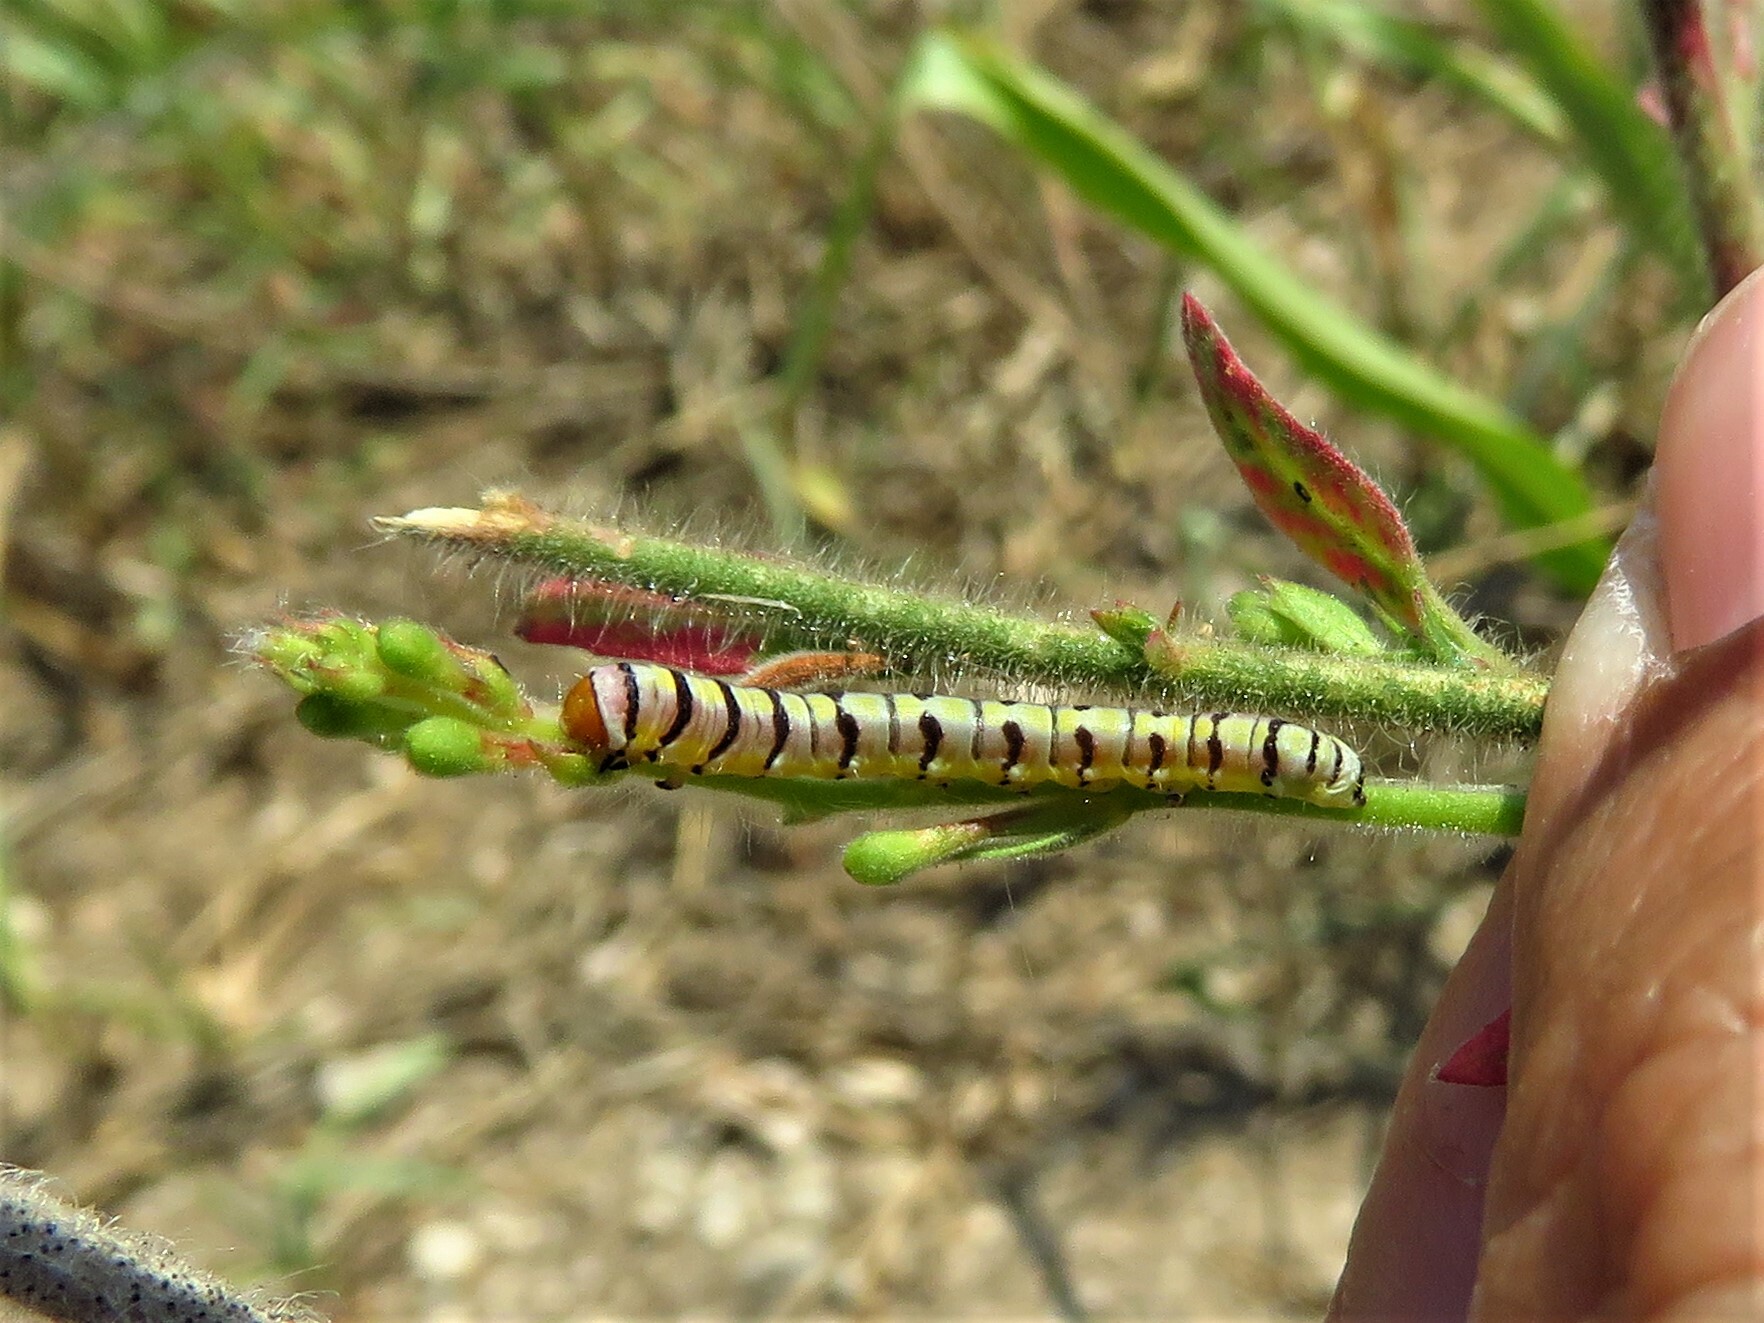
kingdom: Animalia
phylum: Arthropoda
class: Insecta
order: Lepidoptera
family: Noctuidae
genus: Schinia
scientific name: Schinia gaurae
